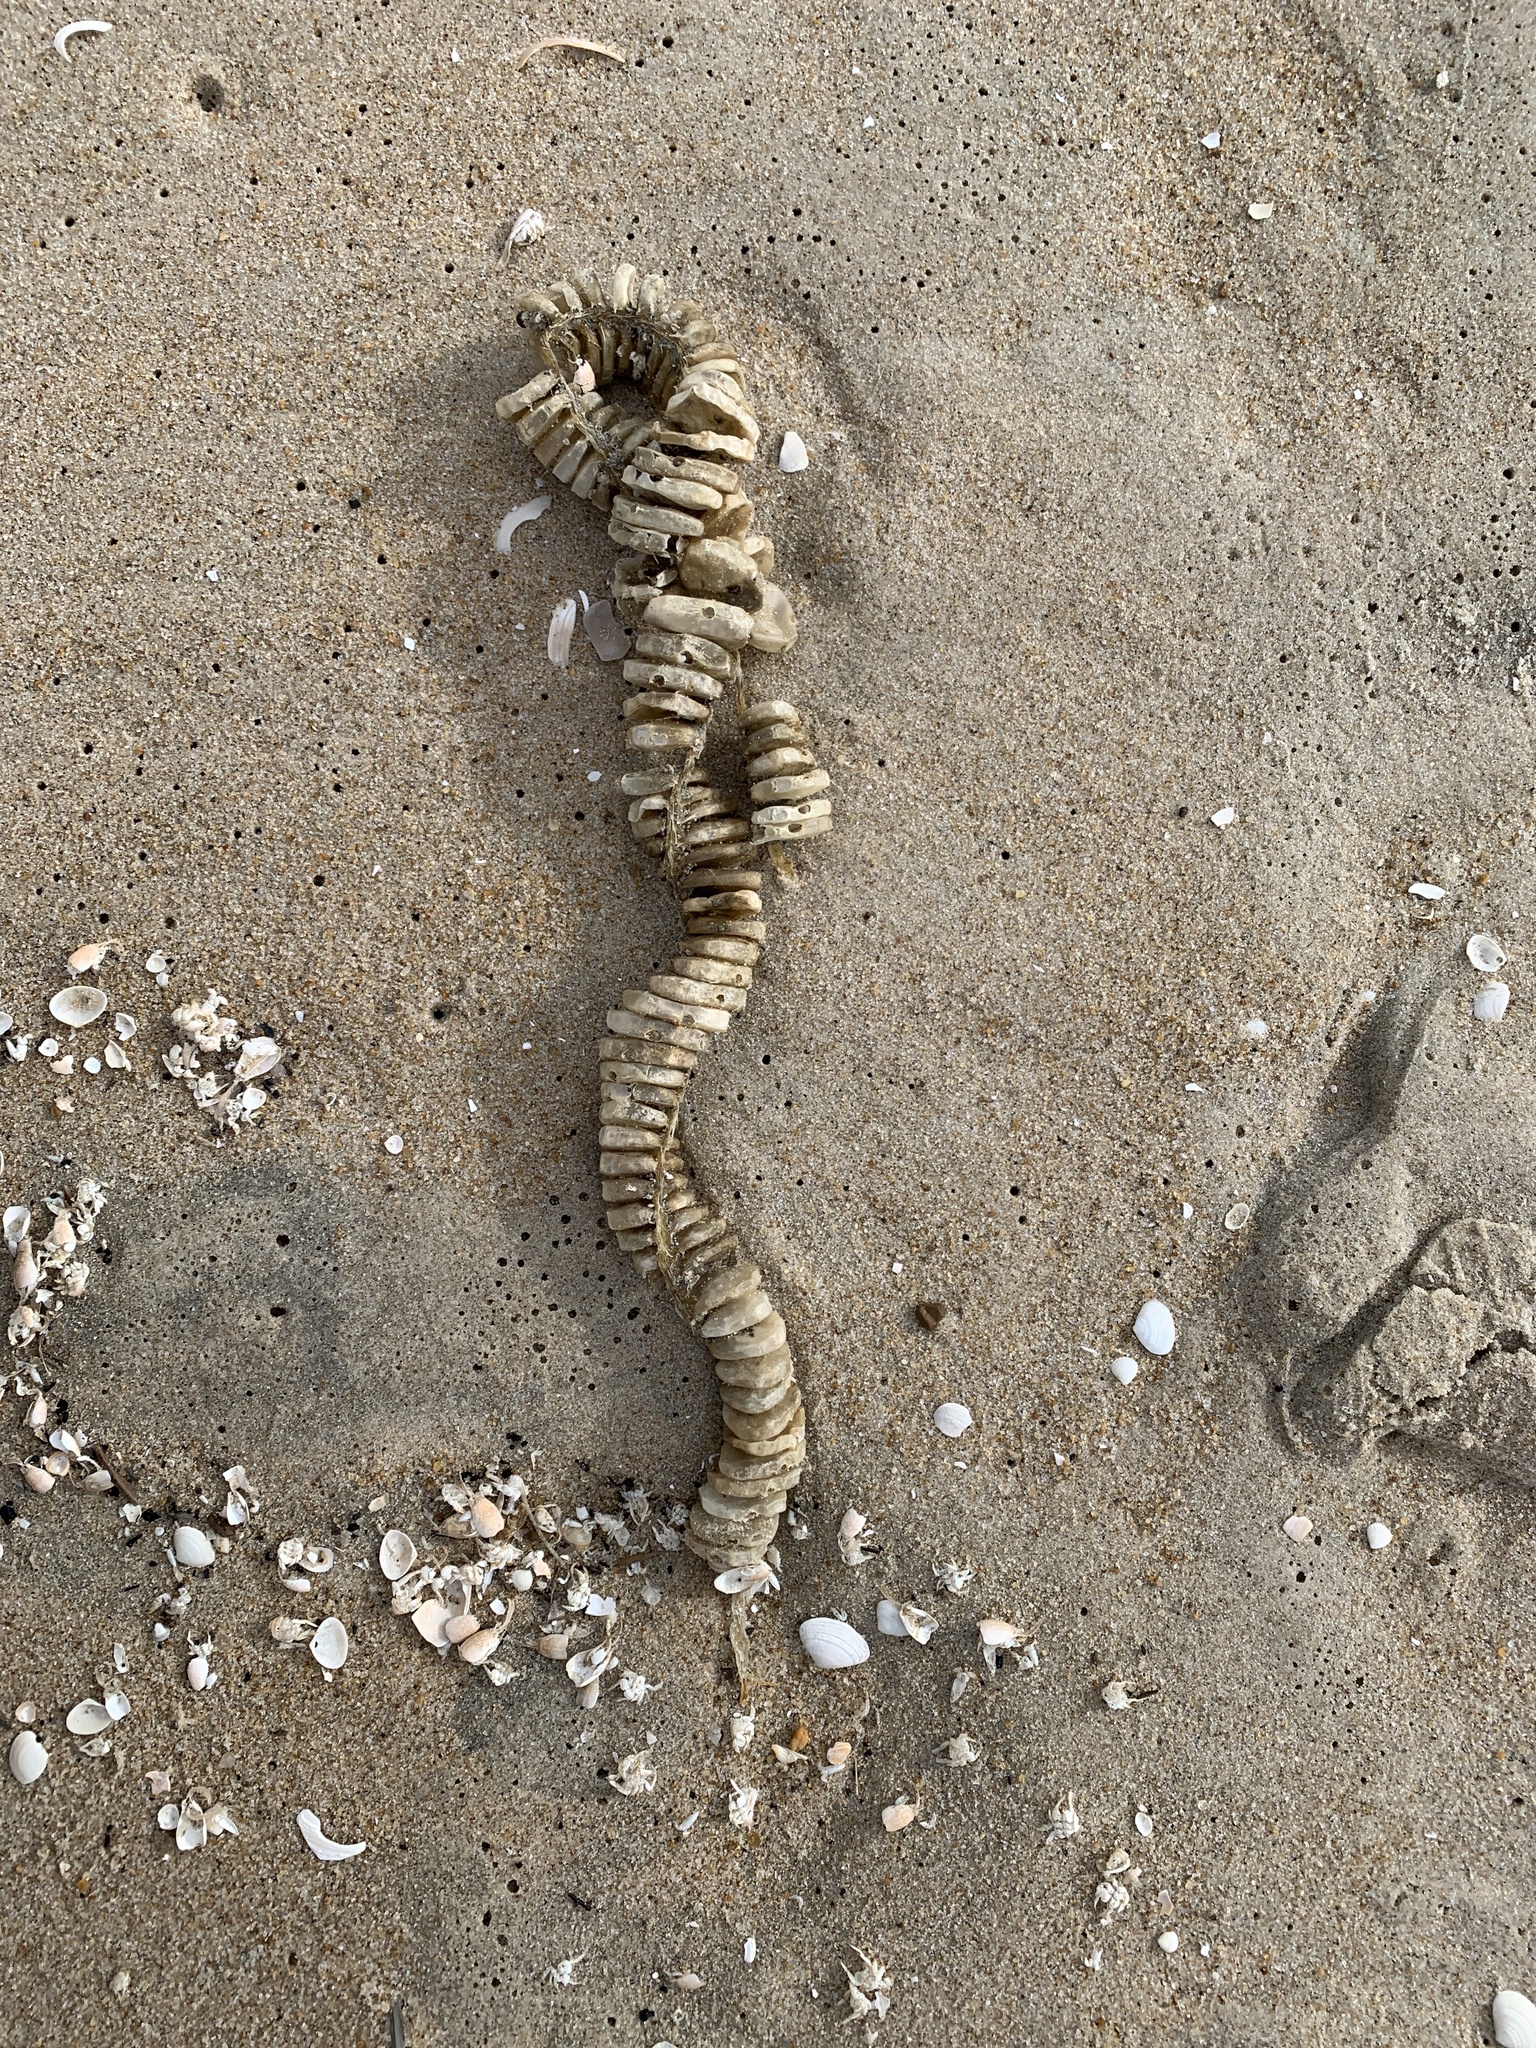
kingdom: Animalia
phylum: Mollusca
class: Gastropoda
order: Neogastropoda
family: Busyconidae
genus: Busycon
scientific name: Busycon carica
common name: Knobbed whelk
